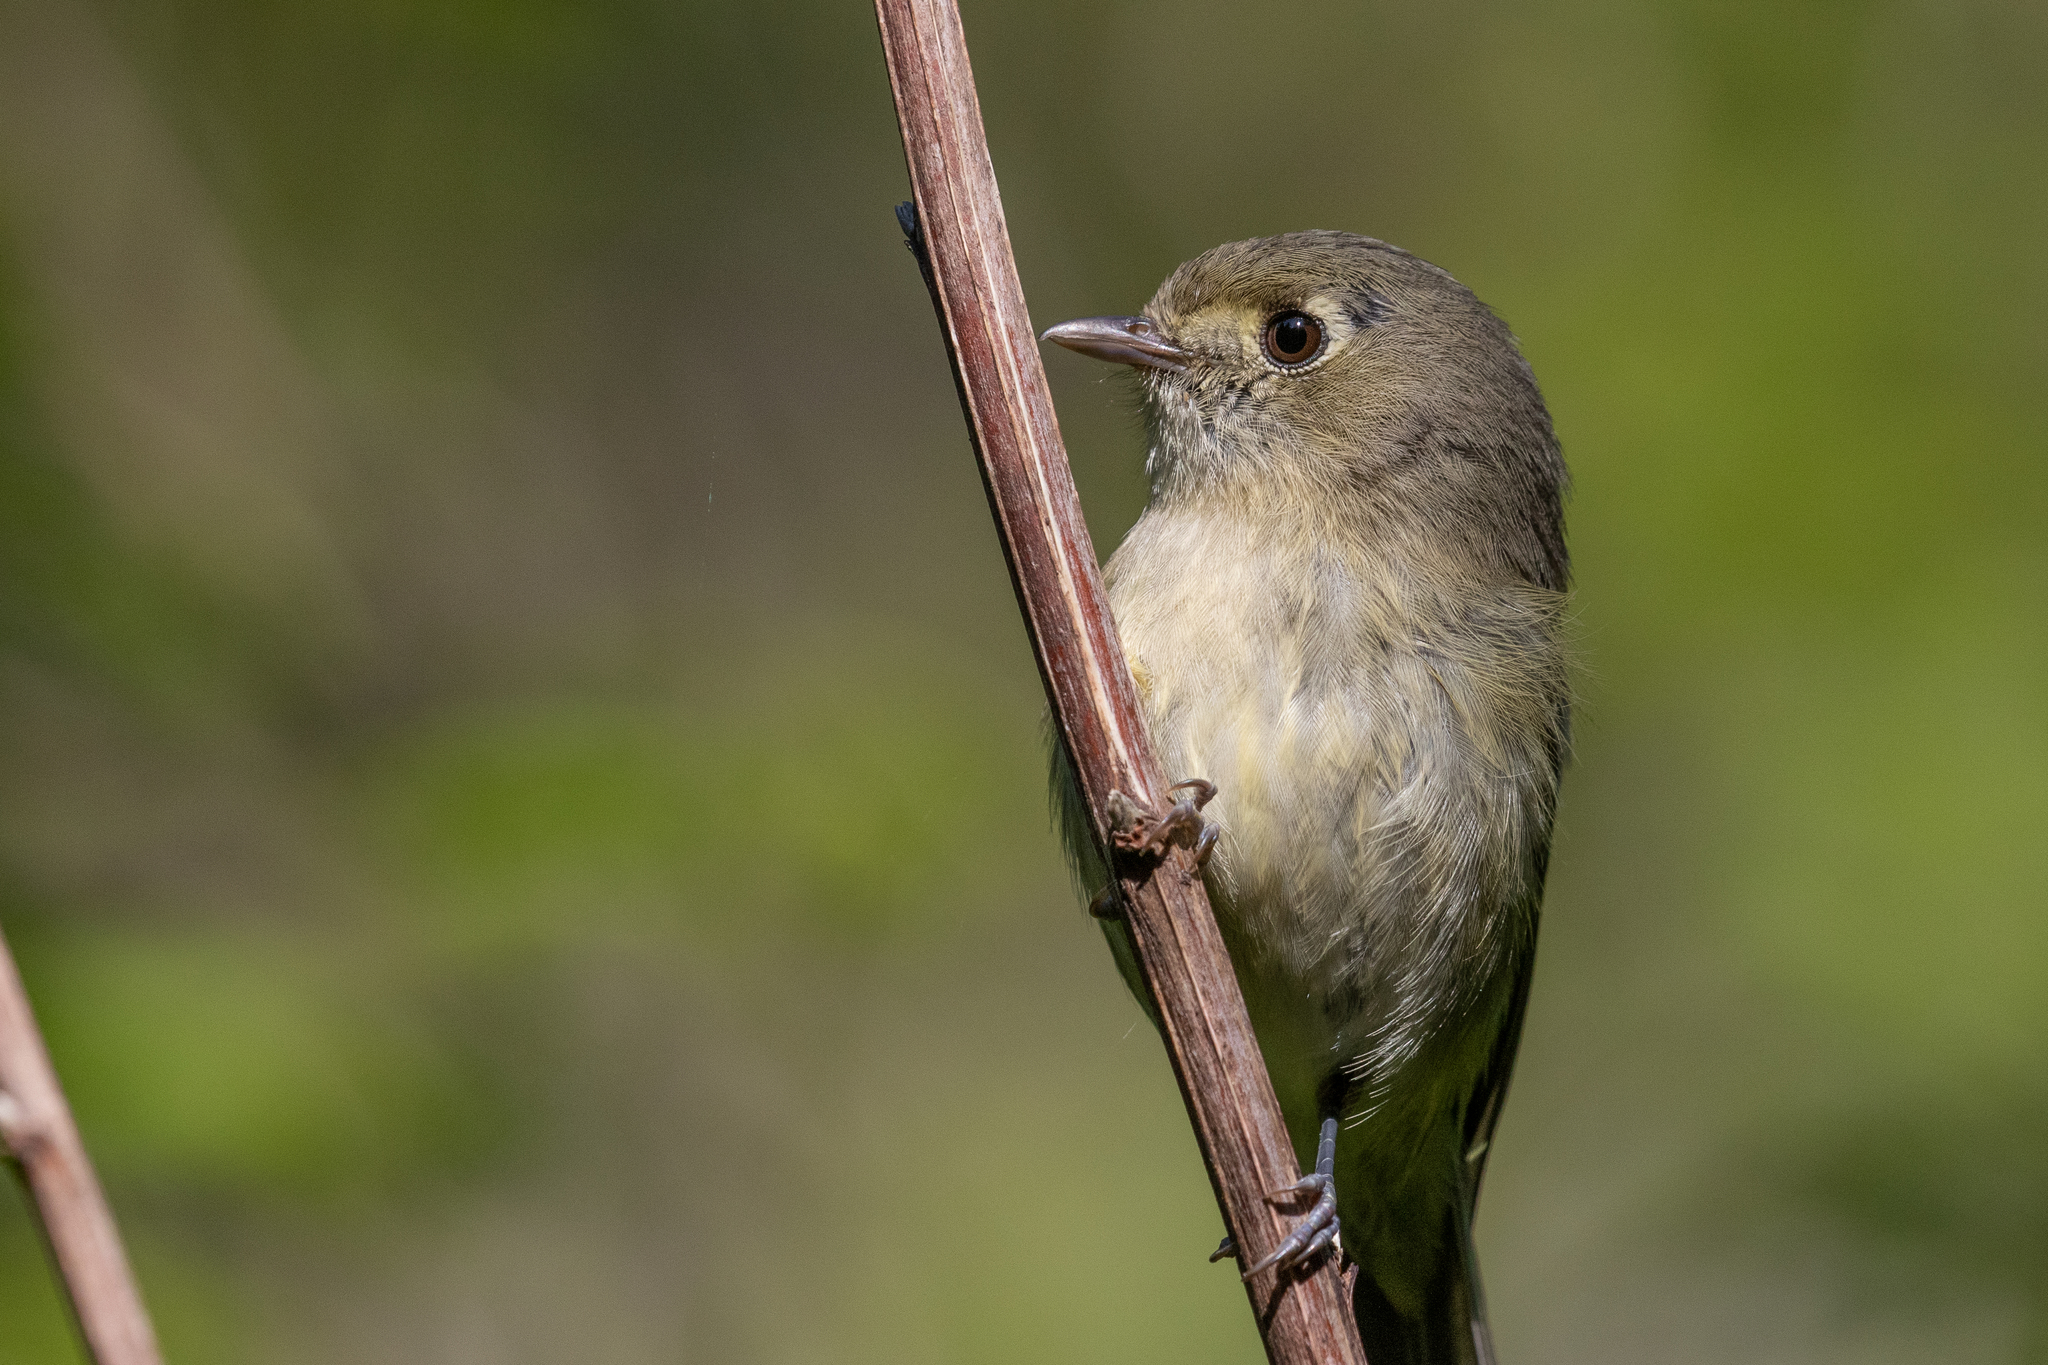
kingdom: Animalia
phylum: Chordata
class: Aves
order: Passeriformes
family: Vireonidae
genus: Vireo
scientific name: Vireo huttoni
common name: Hutton's vireo
